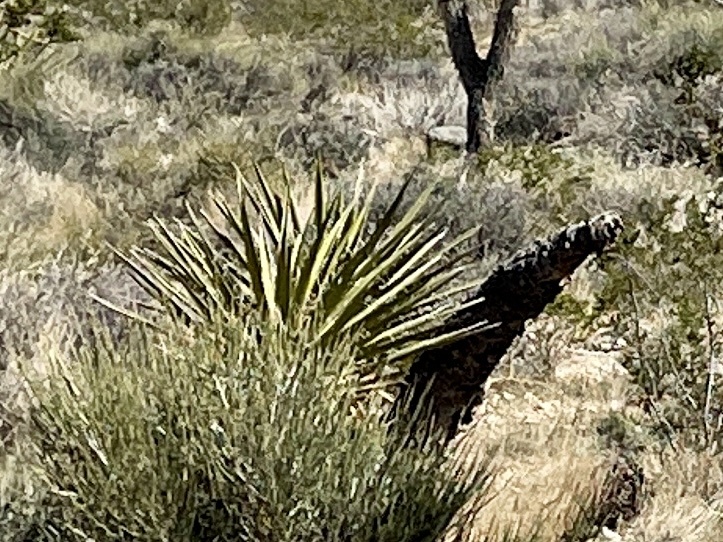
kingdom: Plantae
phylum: Tracheophyta
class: Liliopsida
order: Asparagales
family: Asparagaceae
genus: Yucca
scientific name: Yucca schidigera
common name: Mojave yucca
